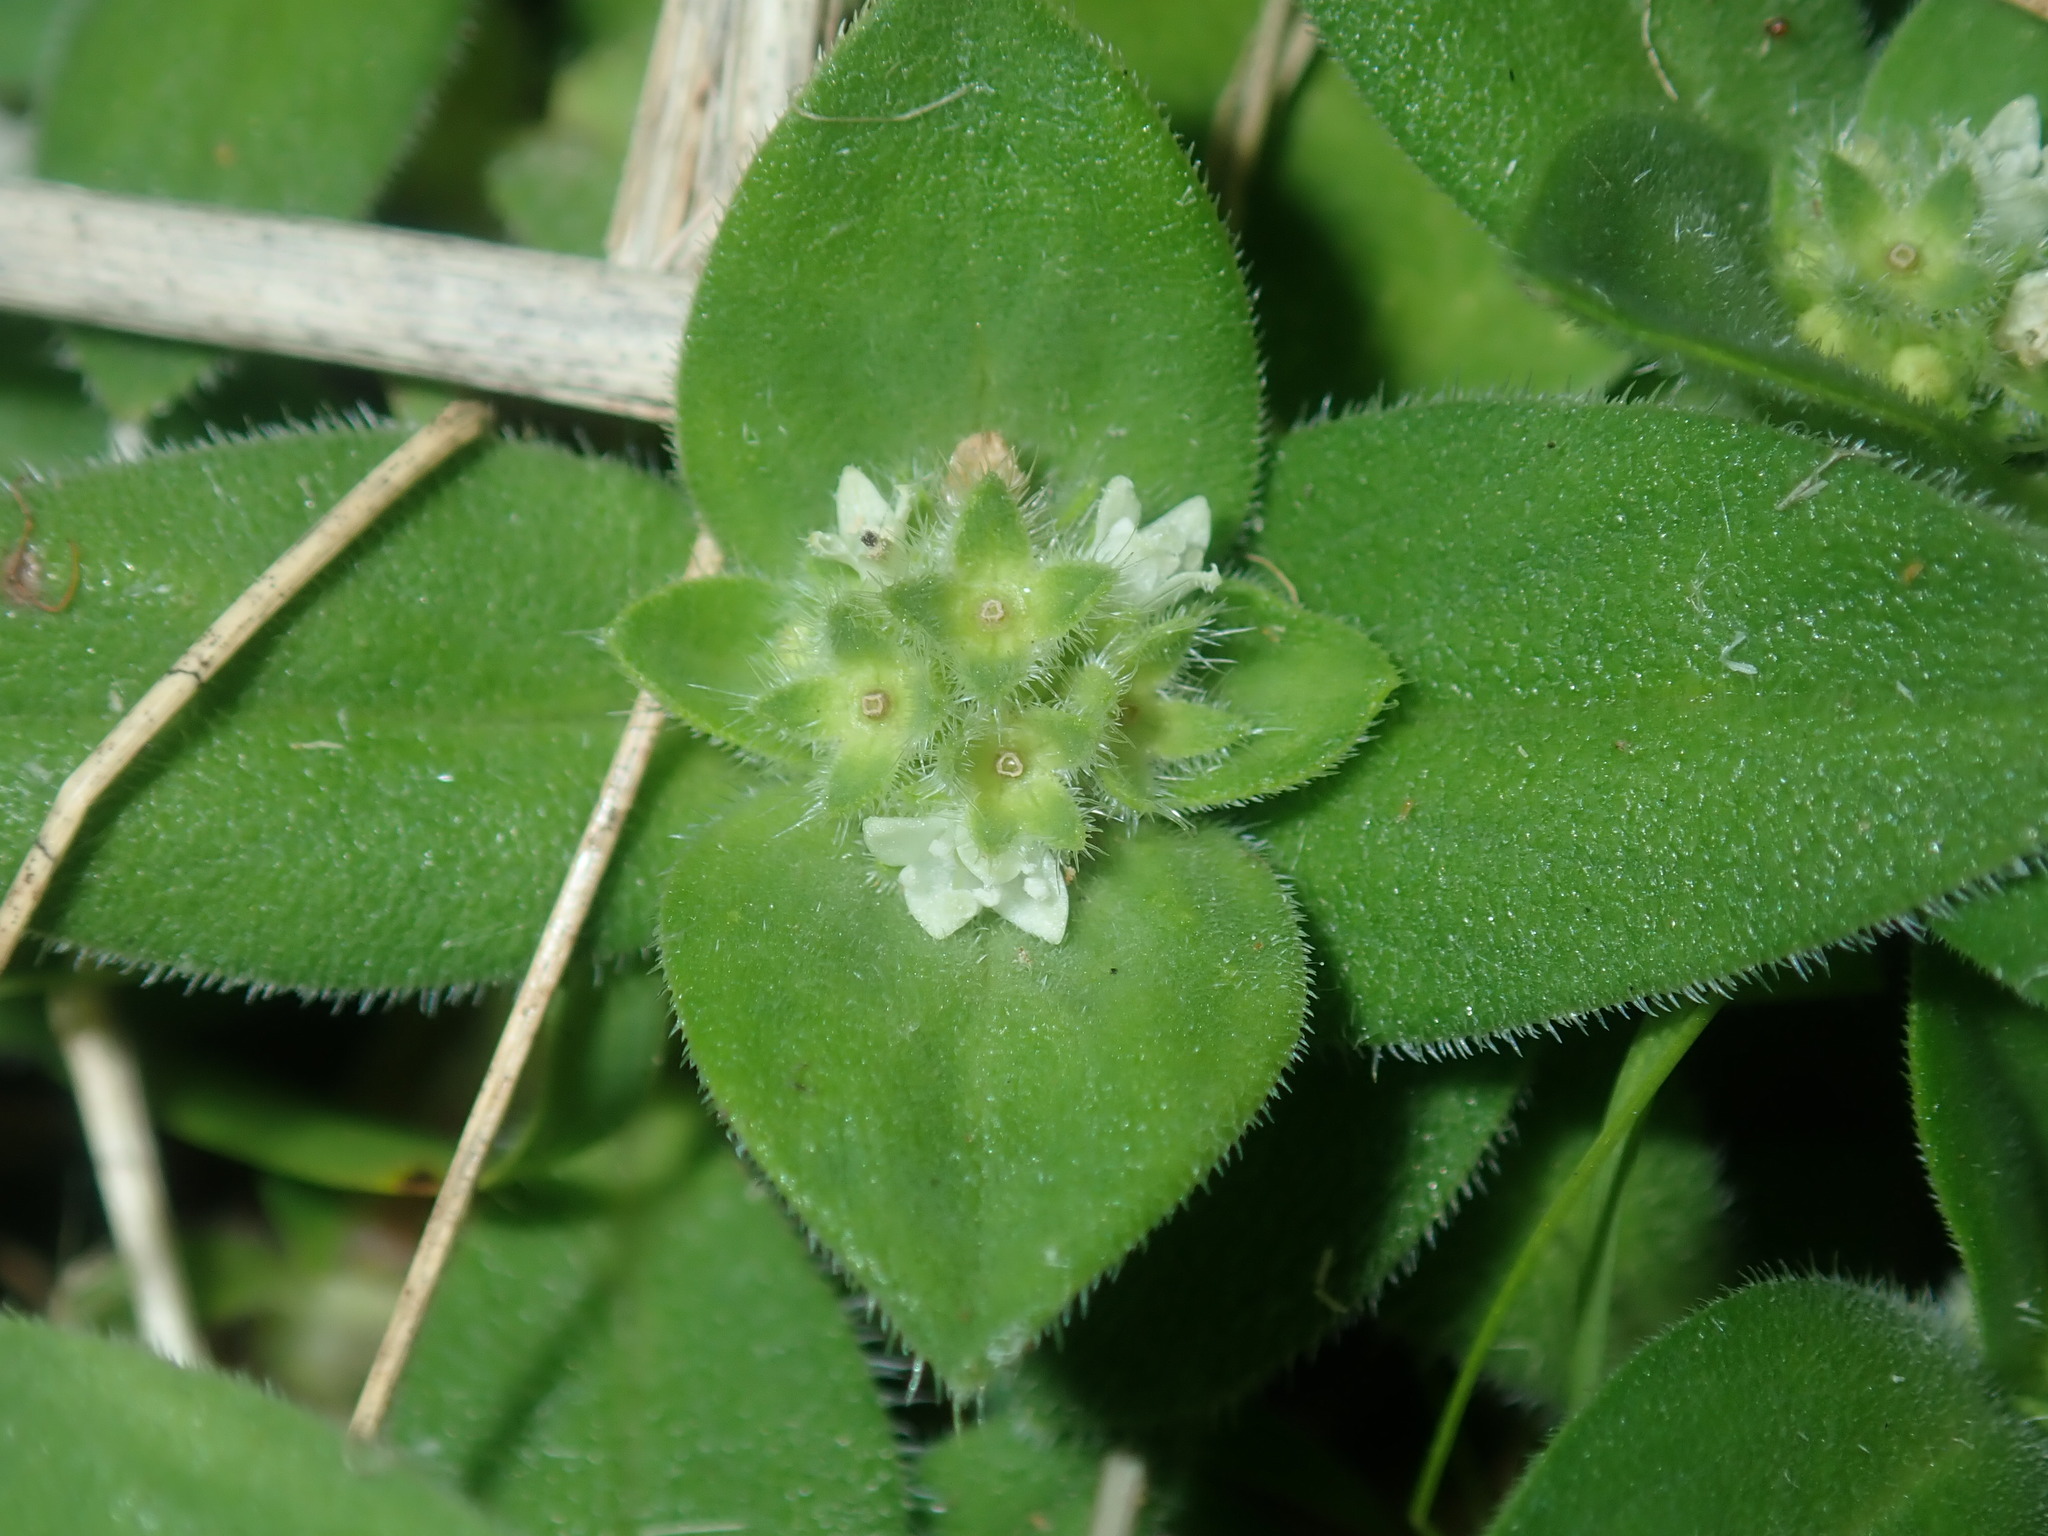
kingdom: Plantae
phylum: Tracheophyta
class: Magnoliopsida
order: Gentianales
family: Rubiaceae
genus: Richardia
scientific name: Richardia humistrata
